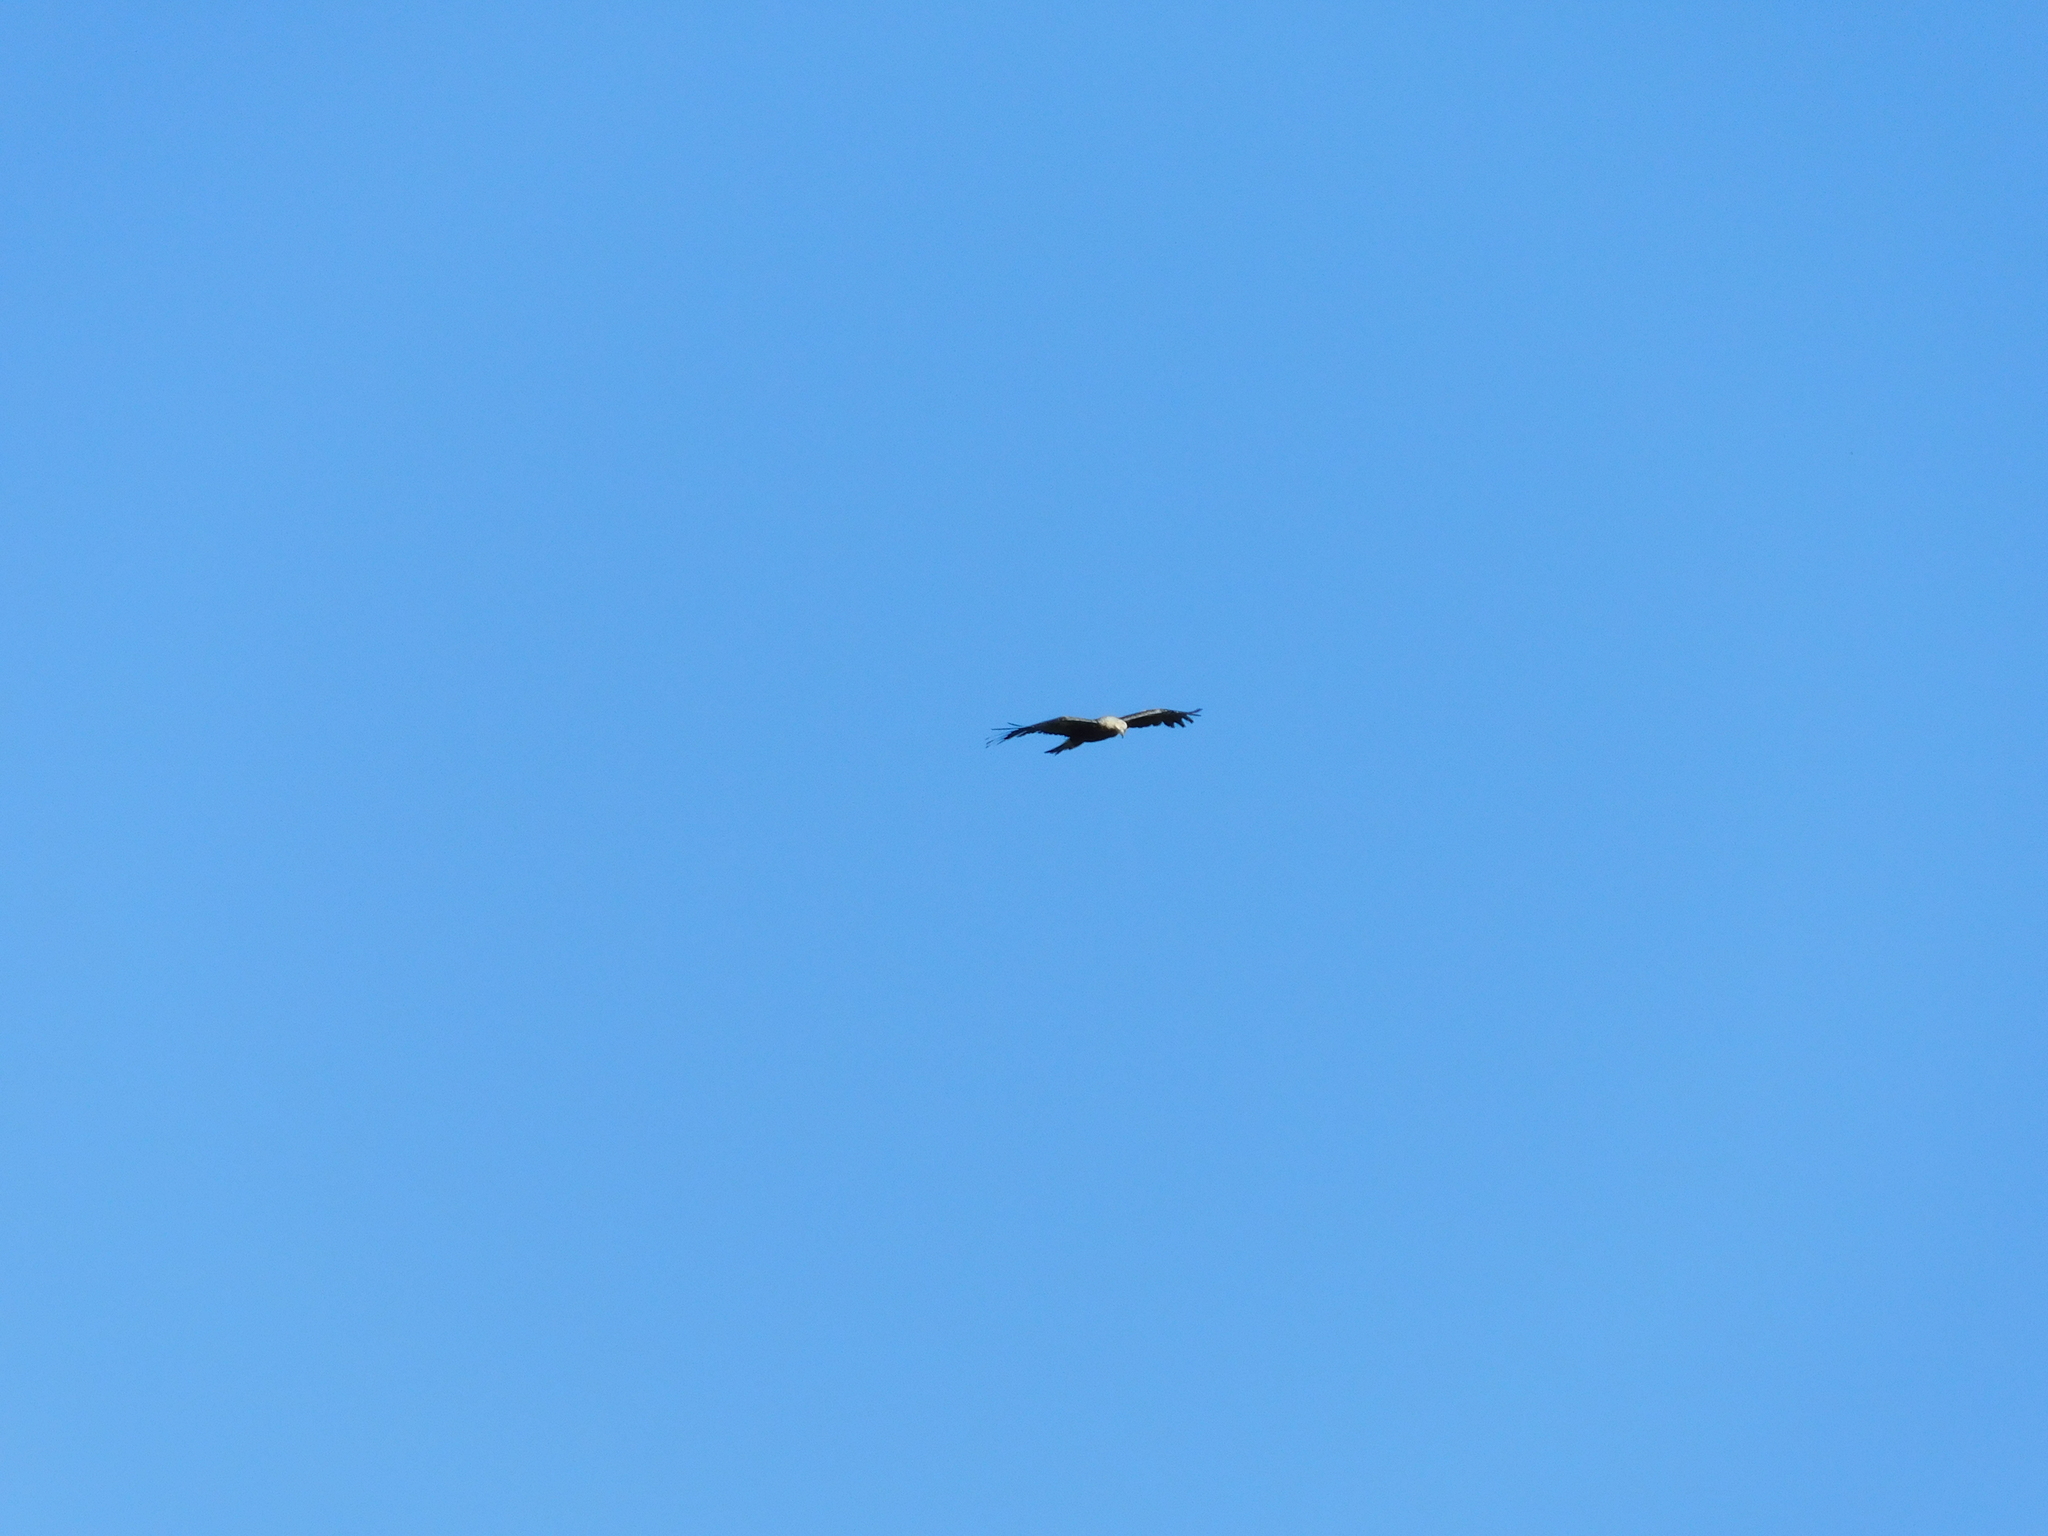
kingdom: Animalia
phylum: Chordata
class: Aves
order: Accipitriformes
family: Accipitridae
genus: Aquila
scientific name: Aquila heliaca
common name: Eastern imperial eagle
